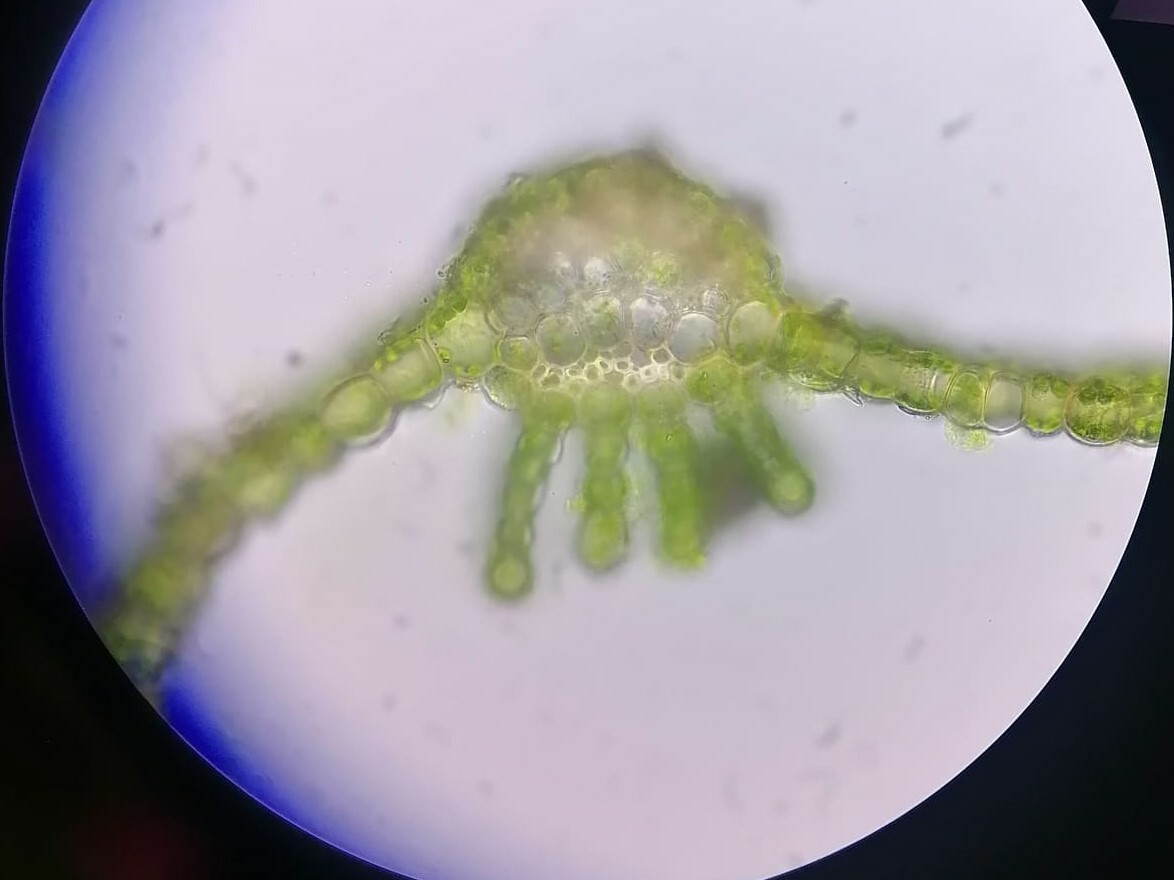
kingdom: Plantae
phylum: Bryophyta
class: Polytrichopsida
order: Polytrichales
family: Polytrichaceae
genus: Atrichum
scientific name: Atrichum undulatum
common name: Common smoothcap
